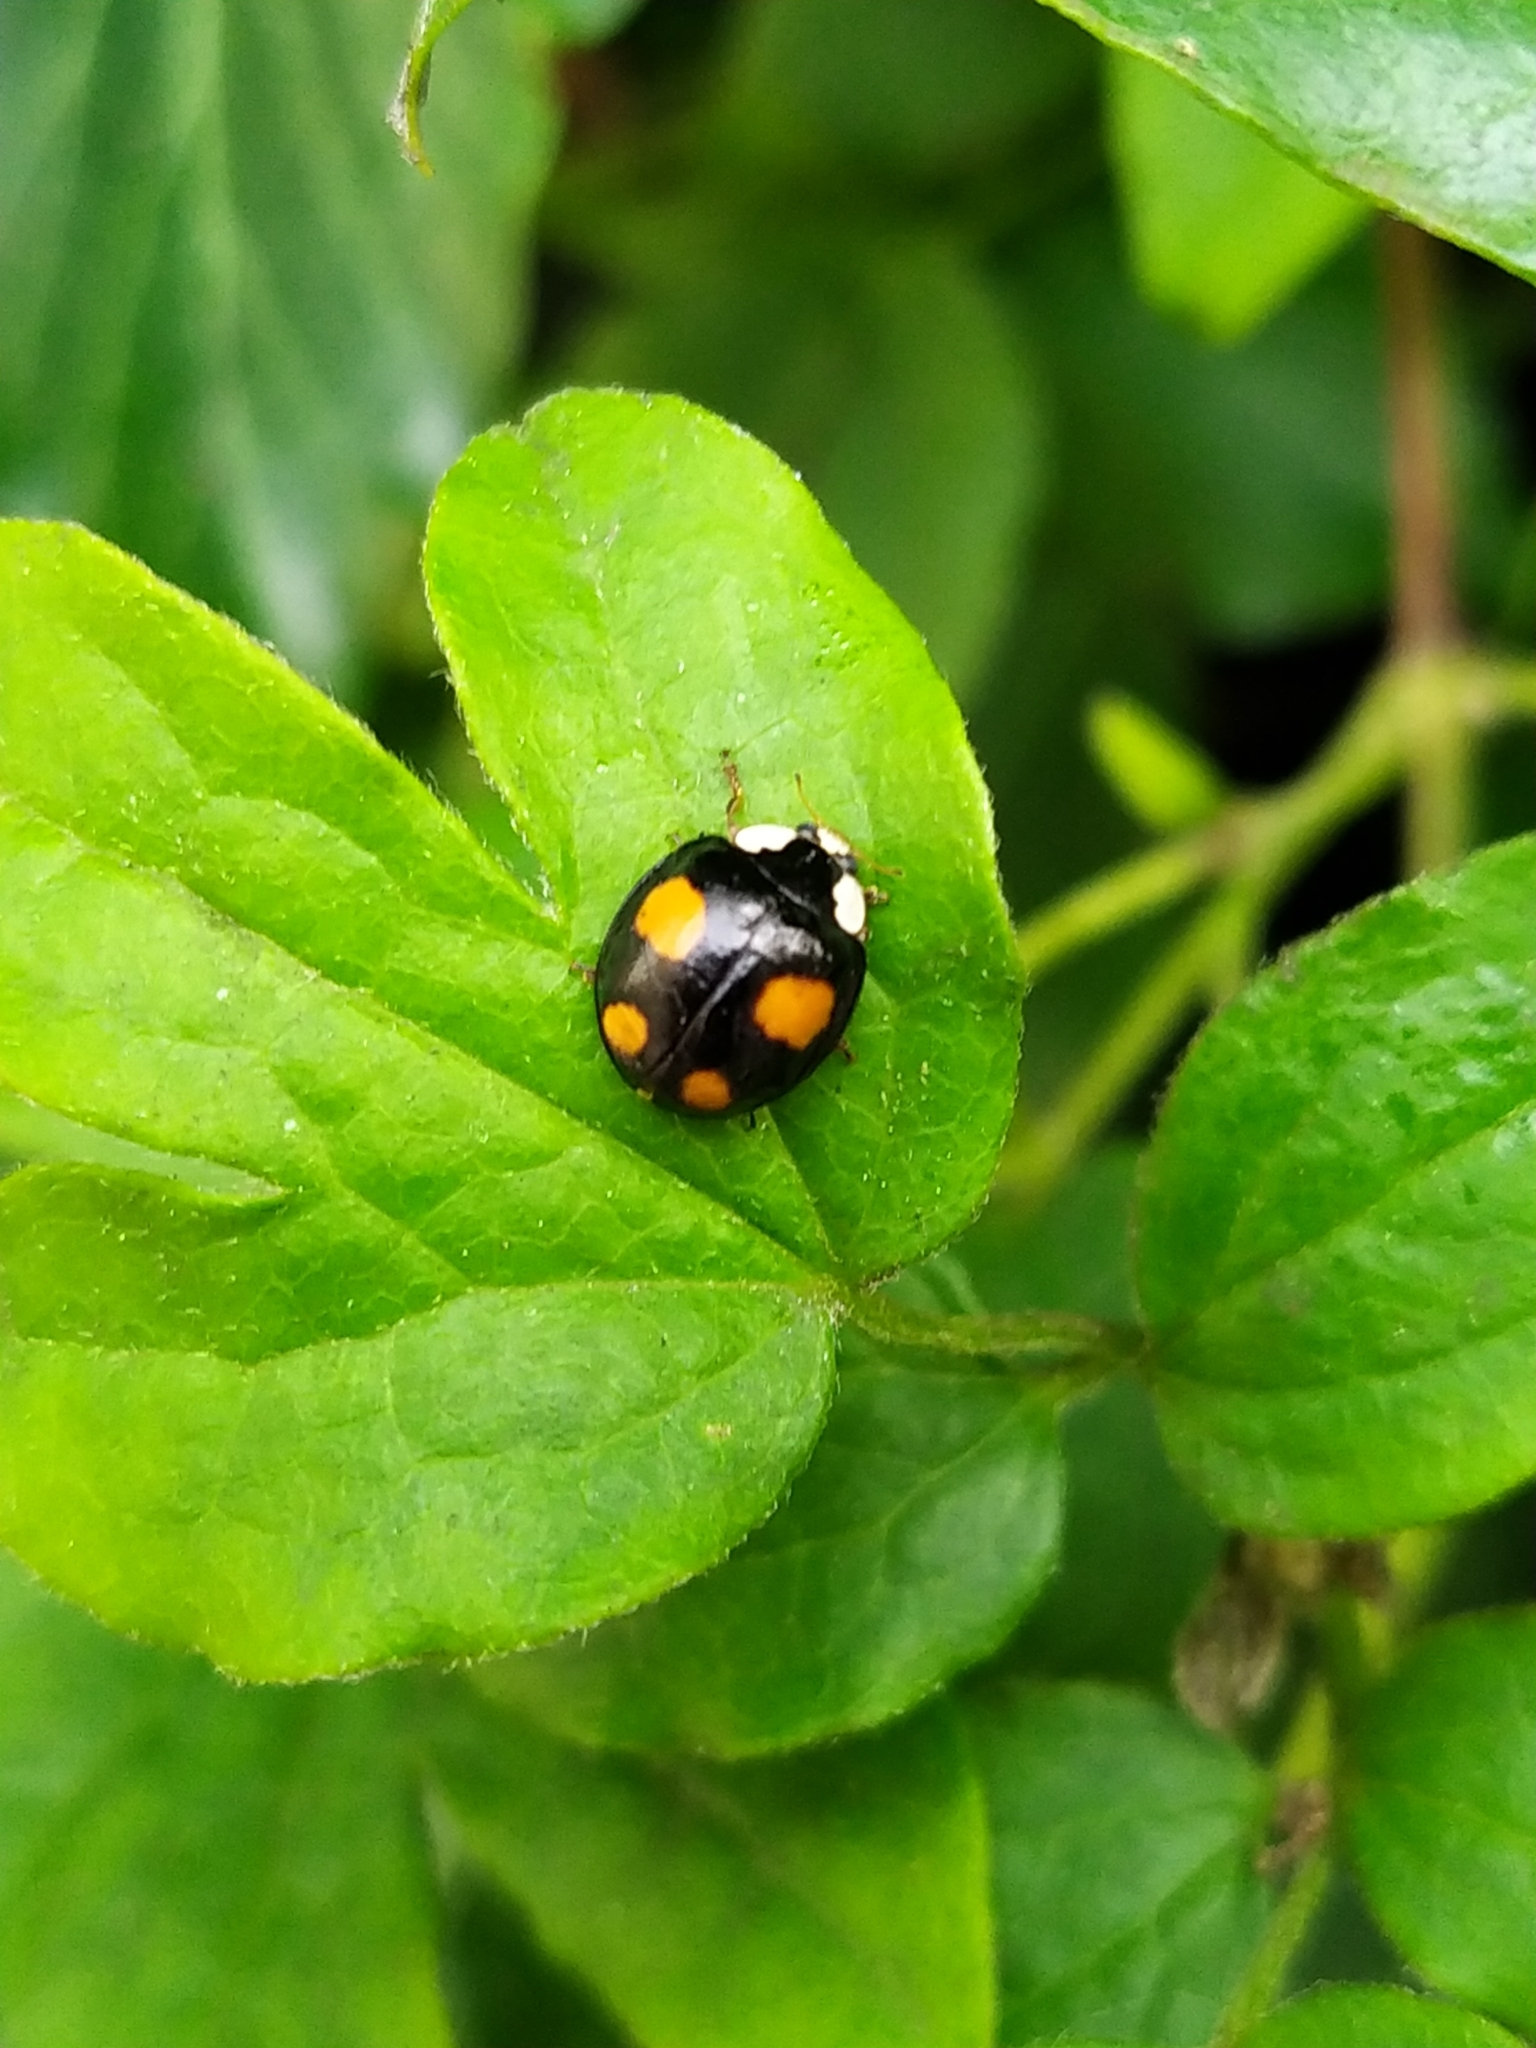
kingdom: Animalia
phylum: Arthropoda
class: Insecta
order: Coleoptera
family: Coccinellidae
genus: Harmonia
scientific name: Harmonia axyridis
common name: Harlequin ladybird
